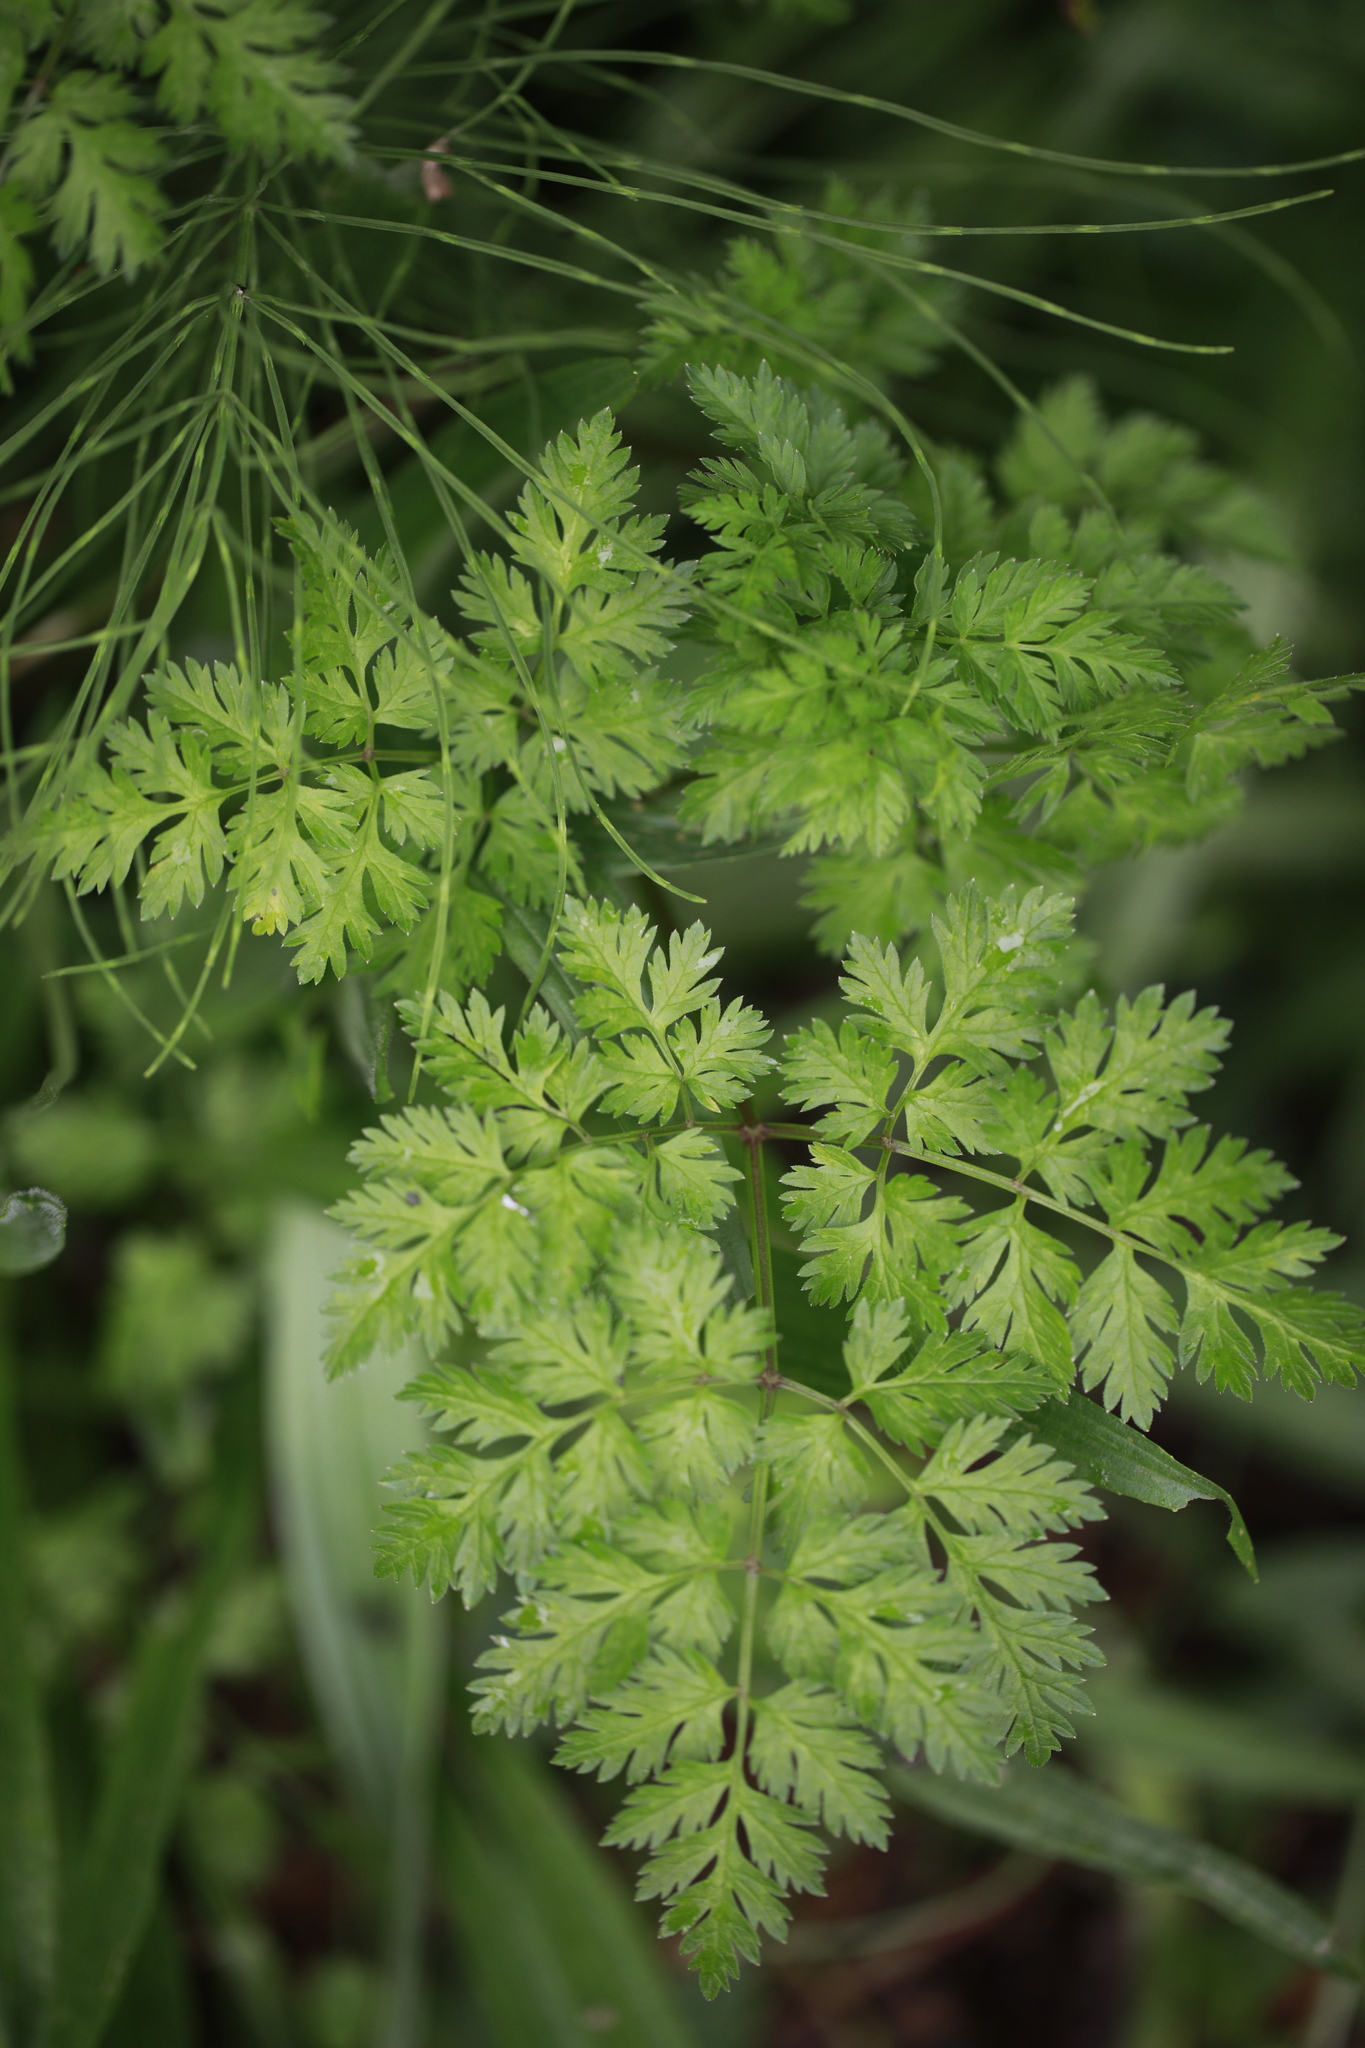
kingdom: Plantae
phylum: Tracheophyta
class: Magnoliopsida
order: Apiales
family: Apiaceae
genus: Anthriscus
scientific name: Anthriscus sylvestris
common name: Cow parsley
